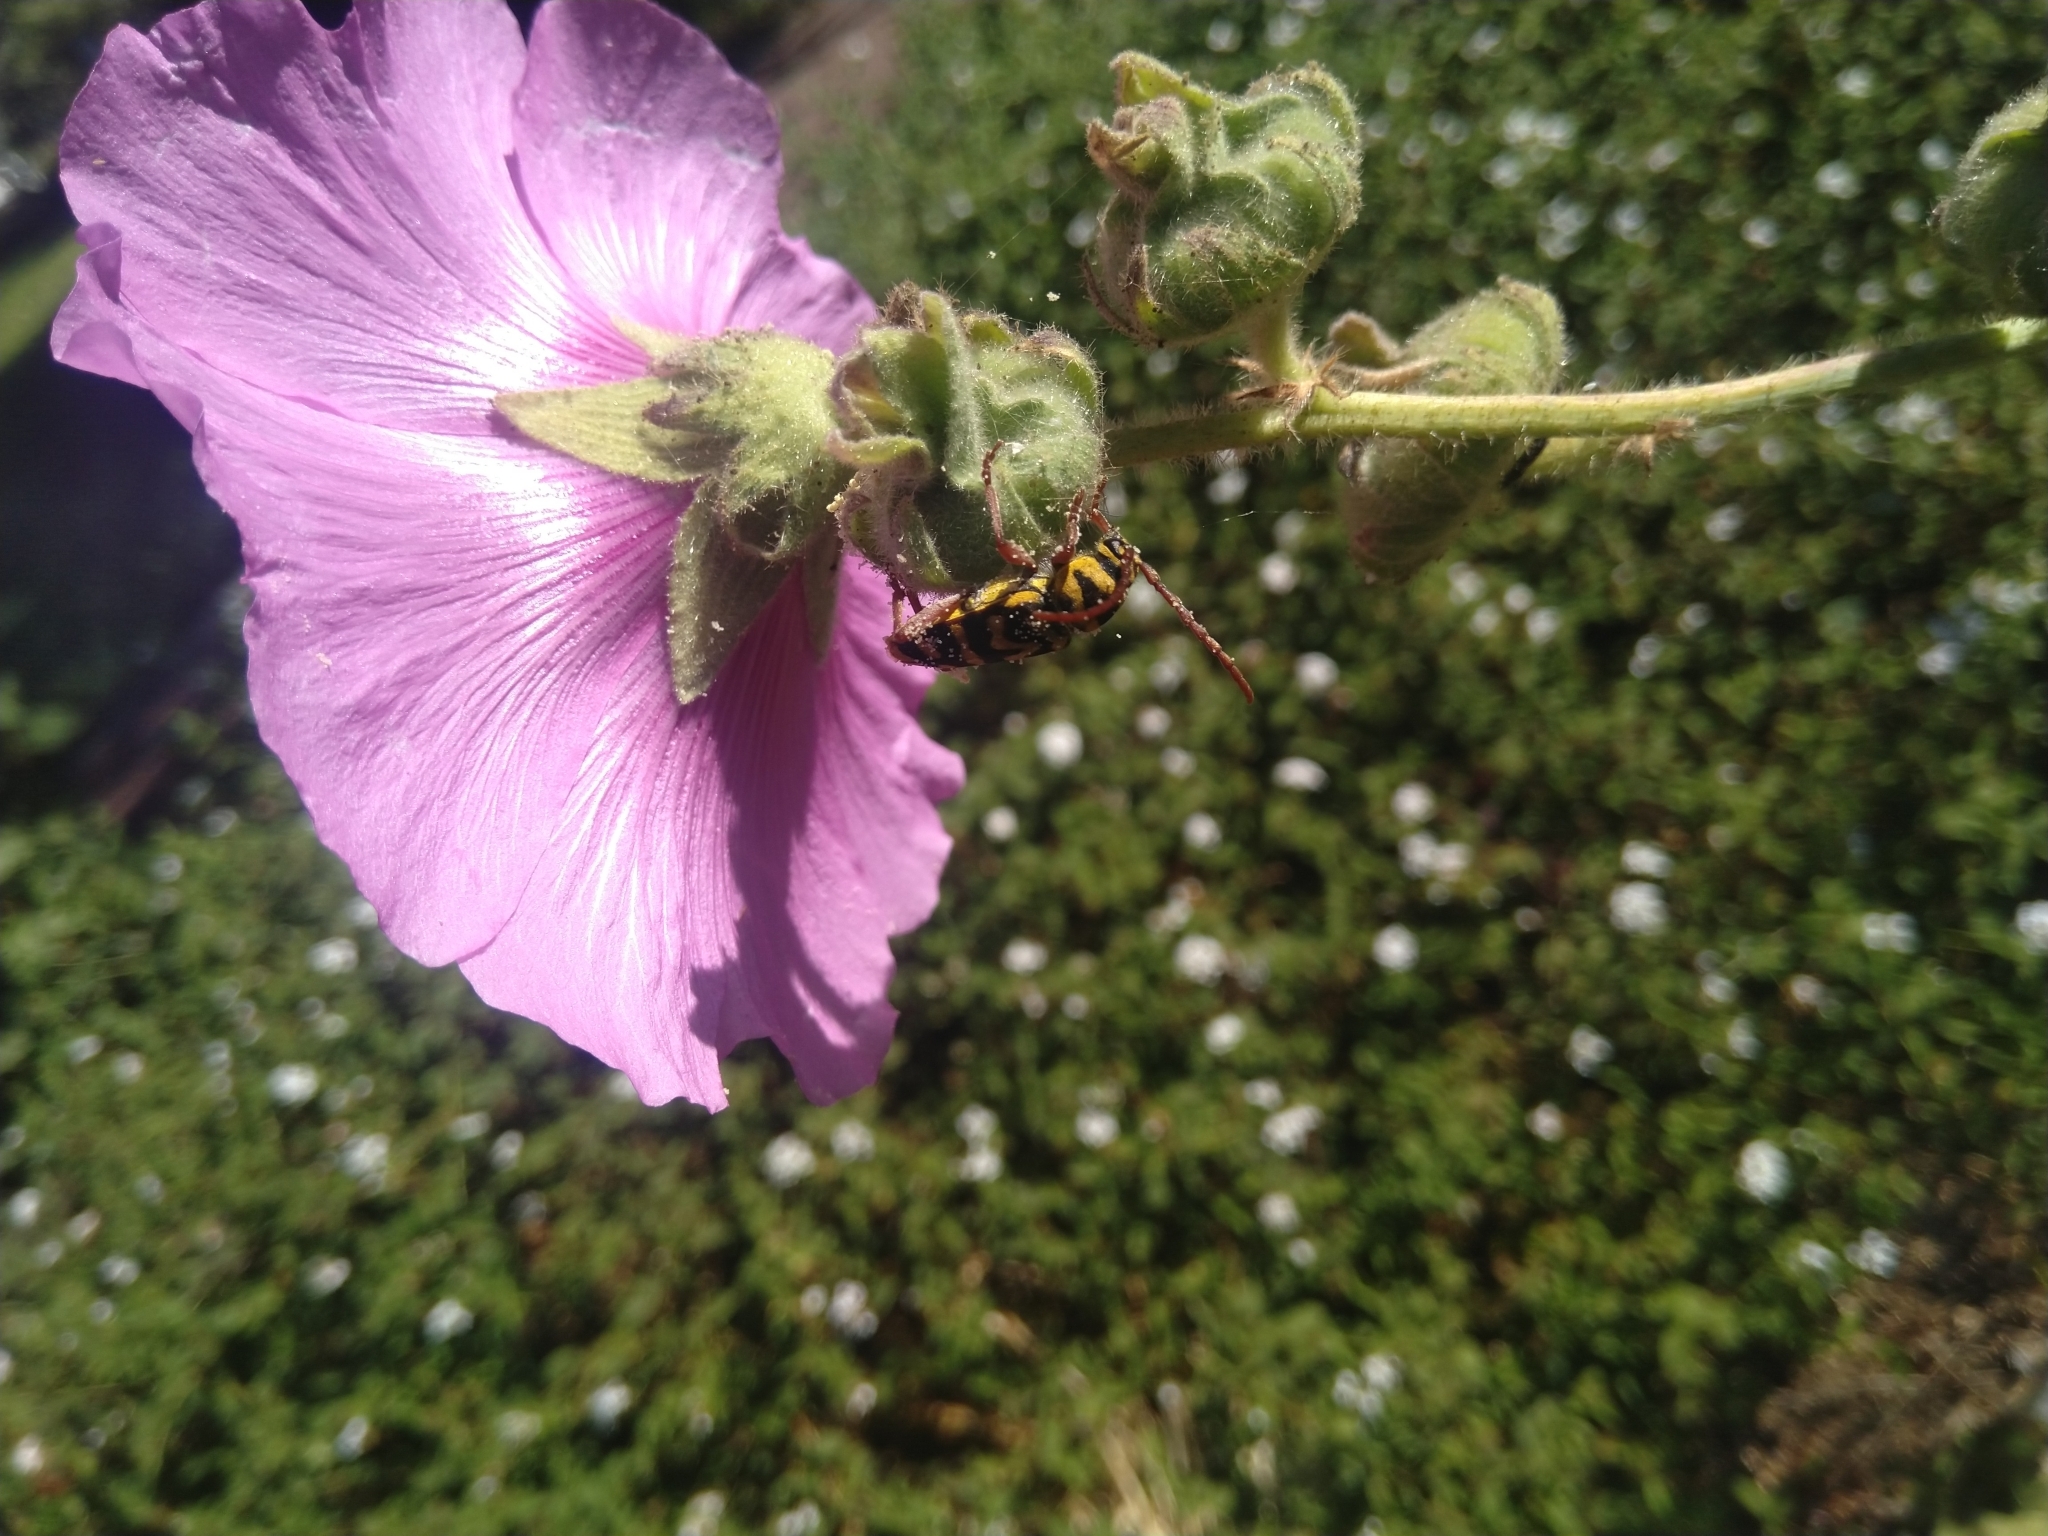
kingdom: Animalia
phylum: Arthropoda
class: Insecta
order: Coleoptera
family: Cerambycidae
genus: Neoplagionotus
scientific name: Neoplagionotus bobelayei
